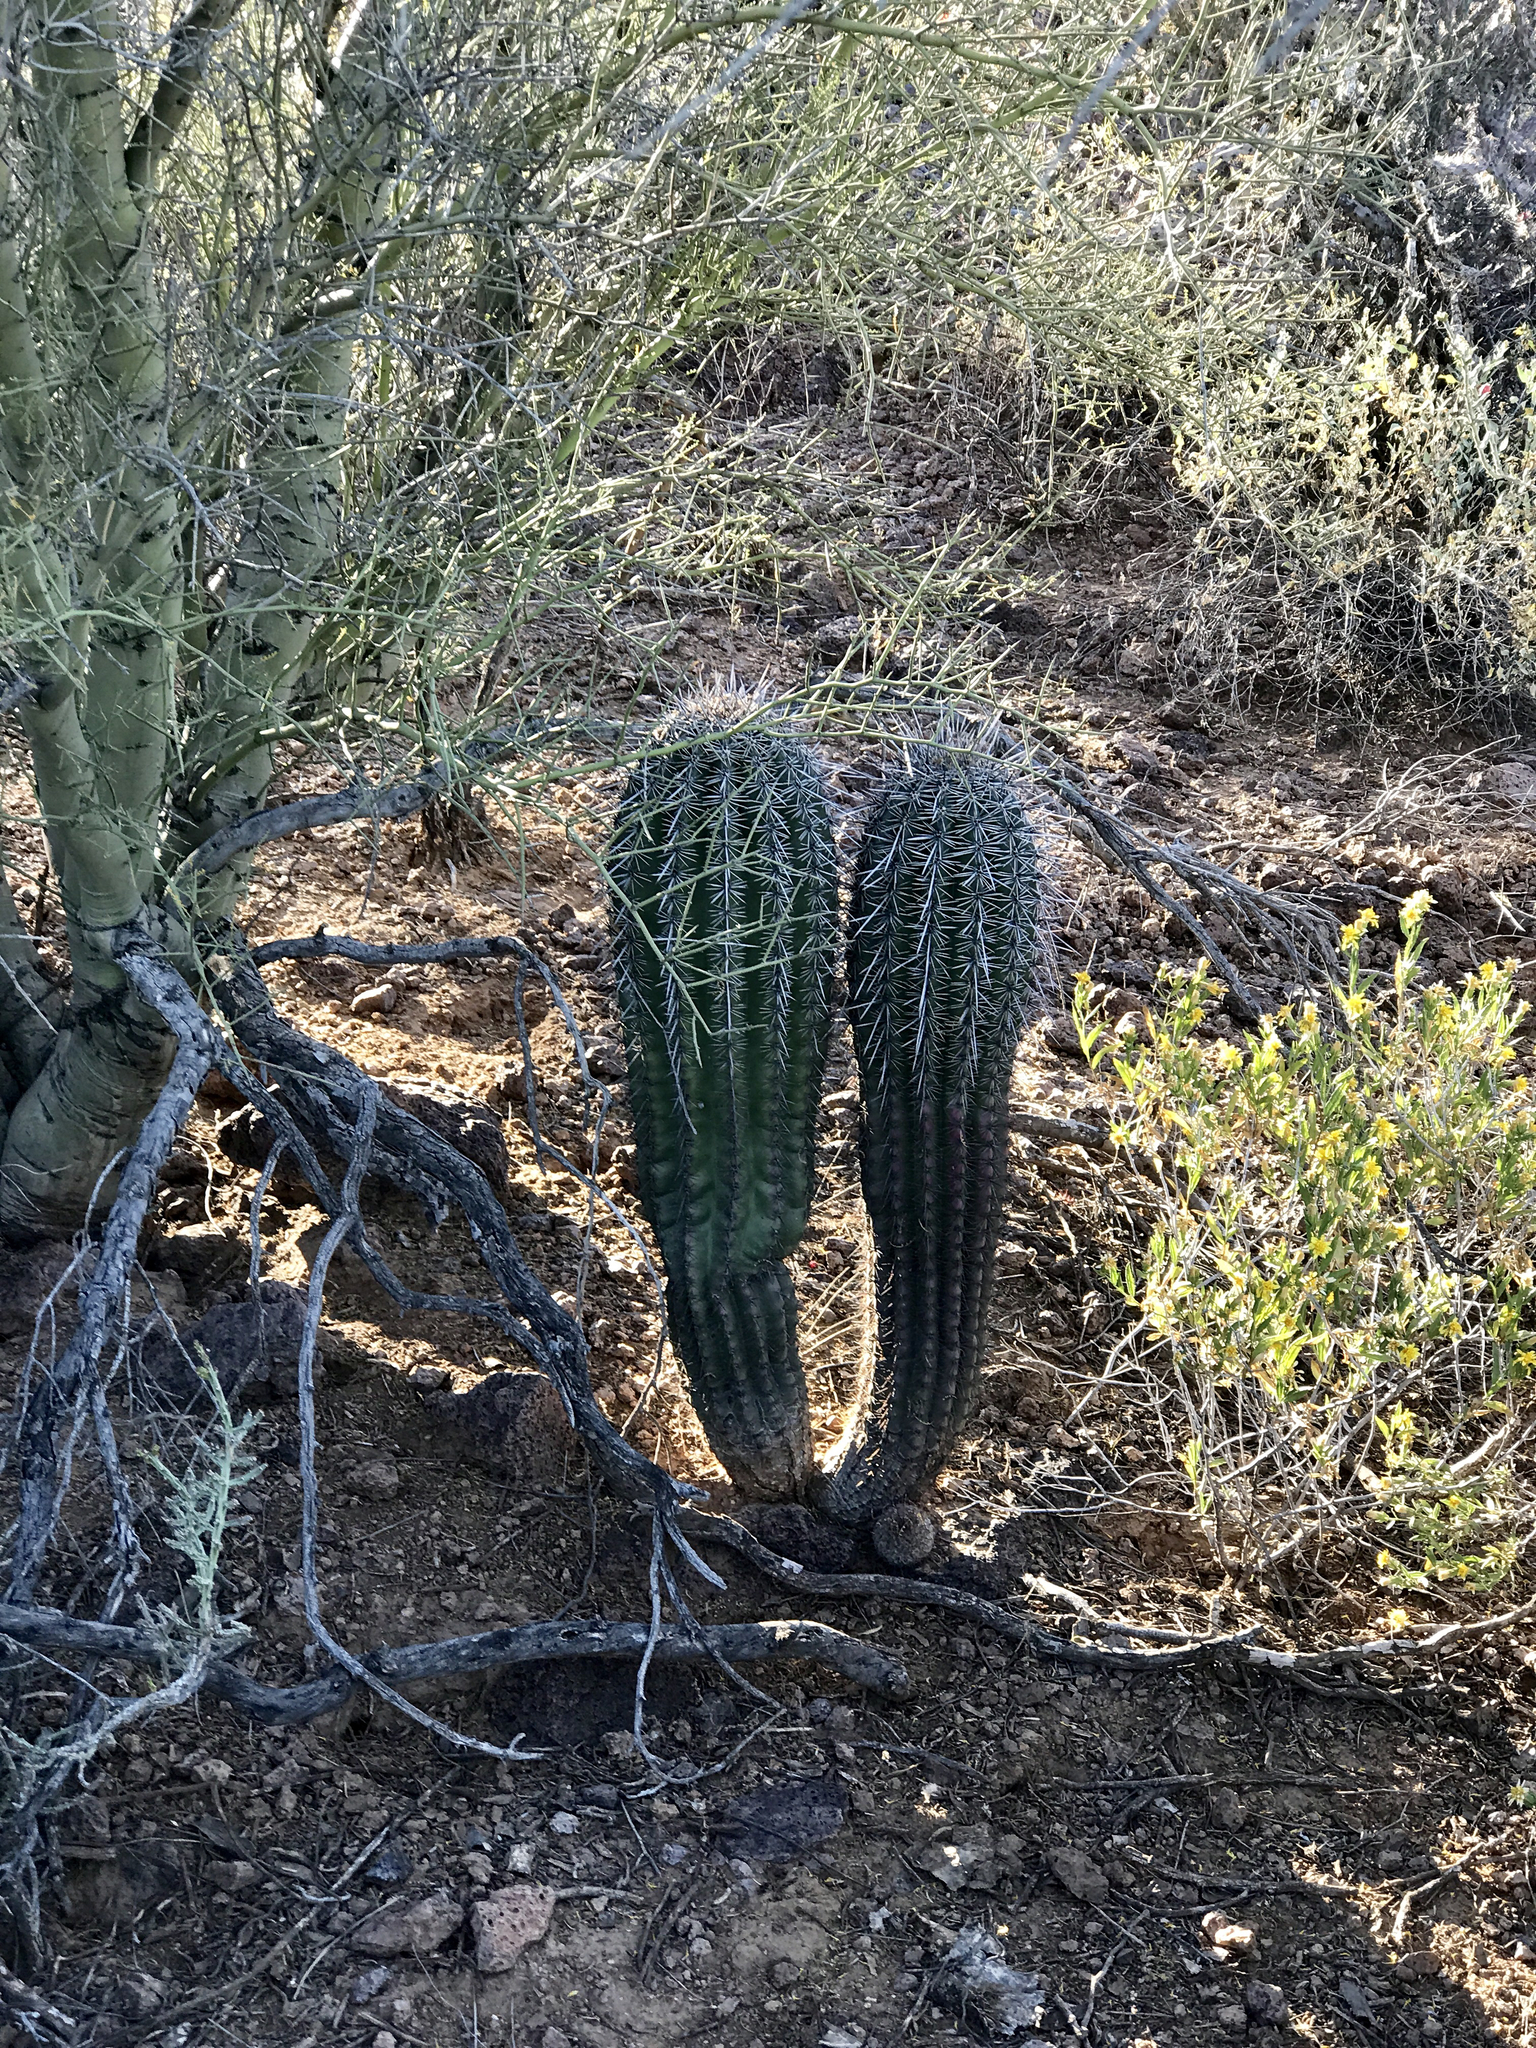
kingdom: Plantae
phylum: Tracheophyta
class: Magnoliopsida
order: Caryophyllales
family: Cactaceae
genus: Carnegiea
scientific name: Carnegiea gigantea
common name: Saguaro
